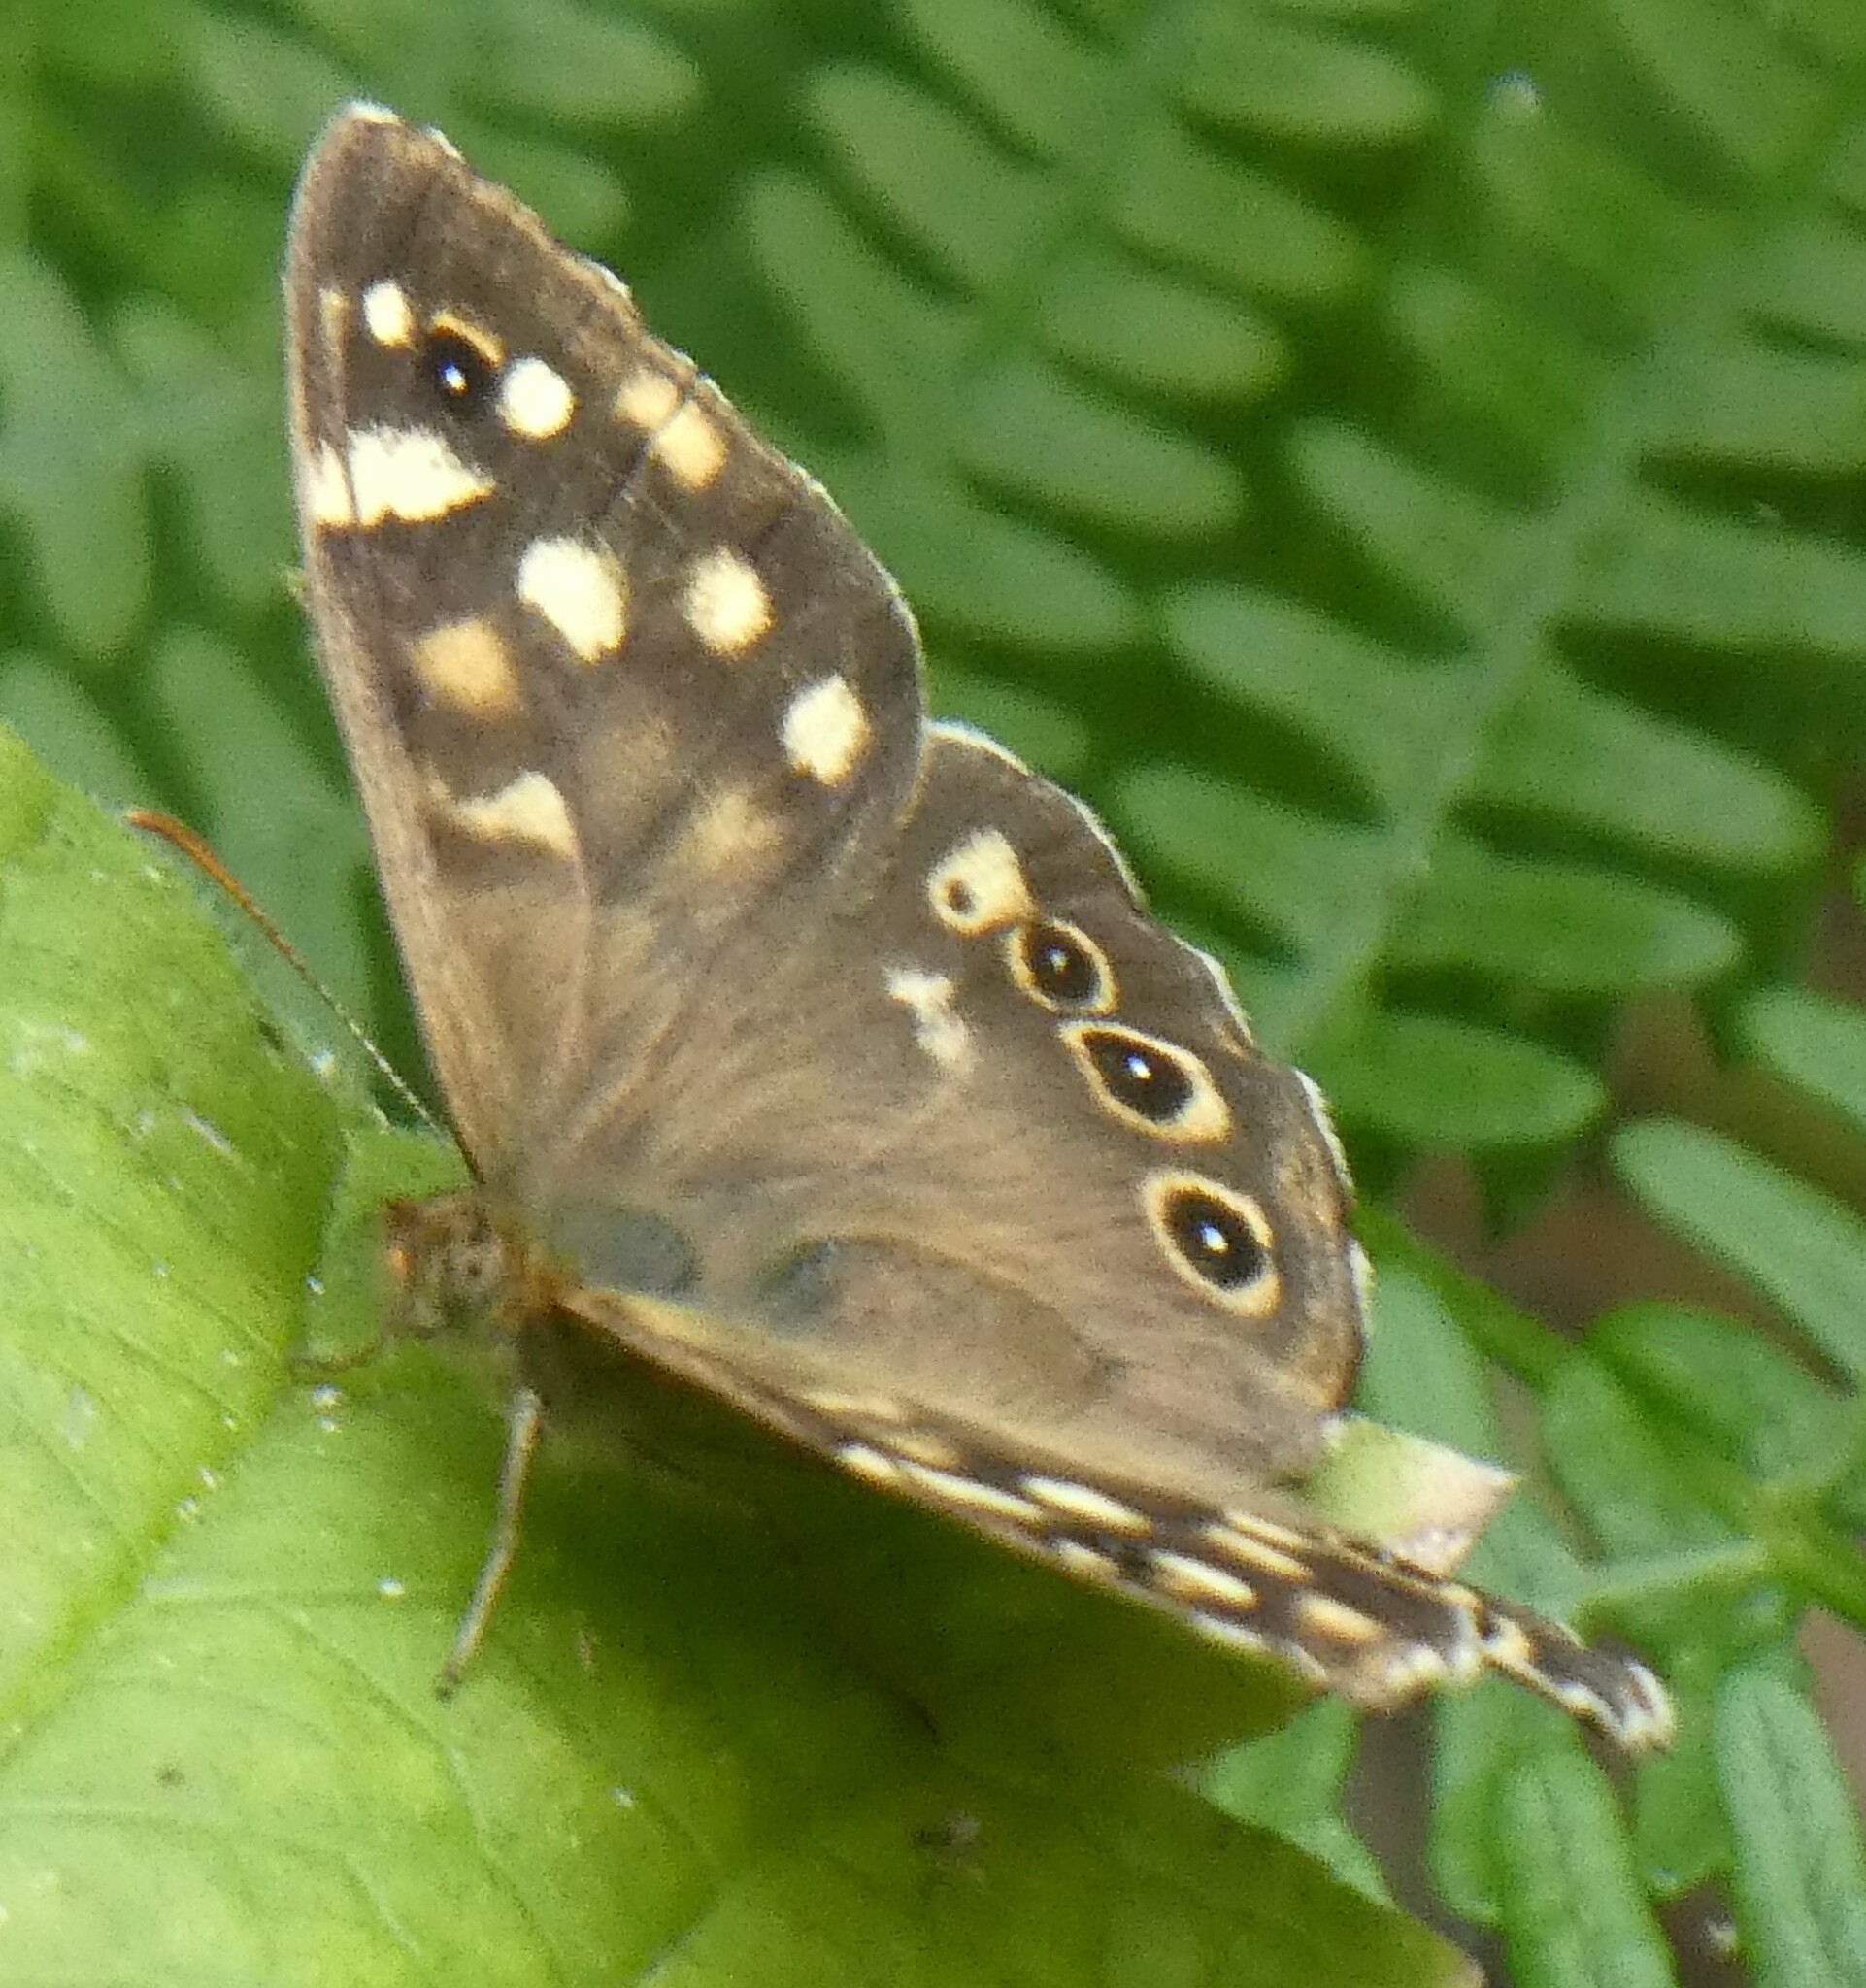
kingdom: Animalia
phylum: Arthropoda
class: Insecta
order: Lepidoptera
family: Nymphalidae
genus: Pararge
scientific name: Pararge aegeria
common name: Speckled wood
